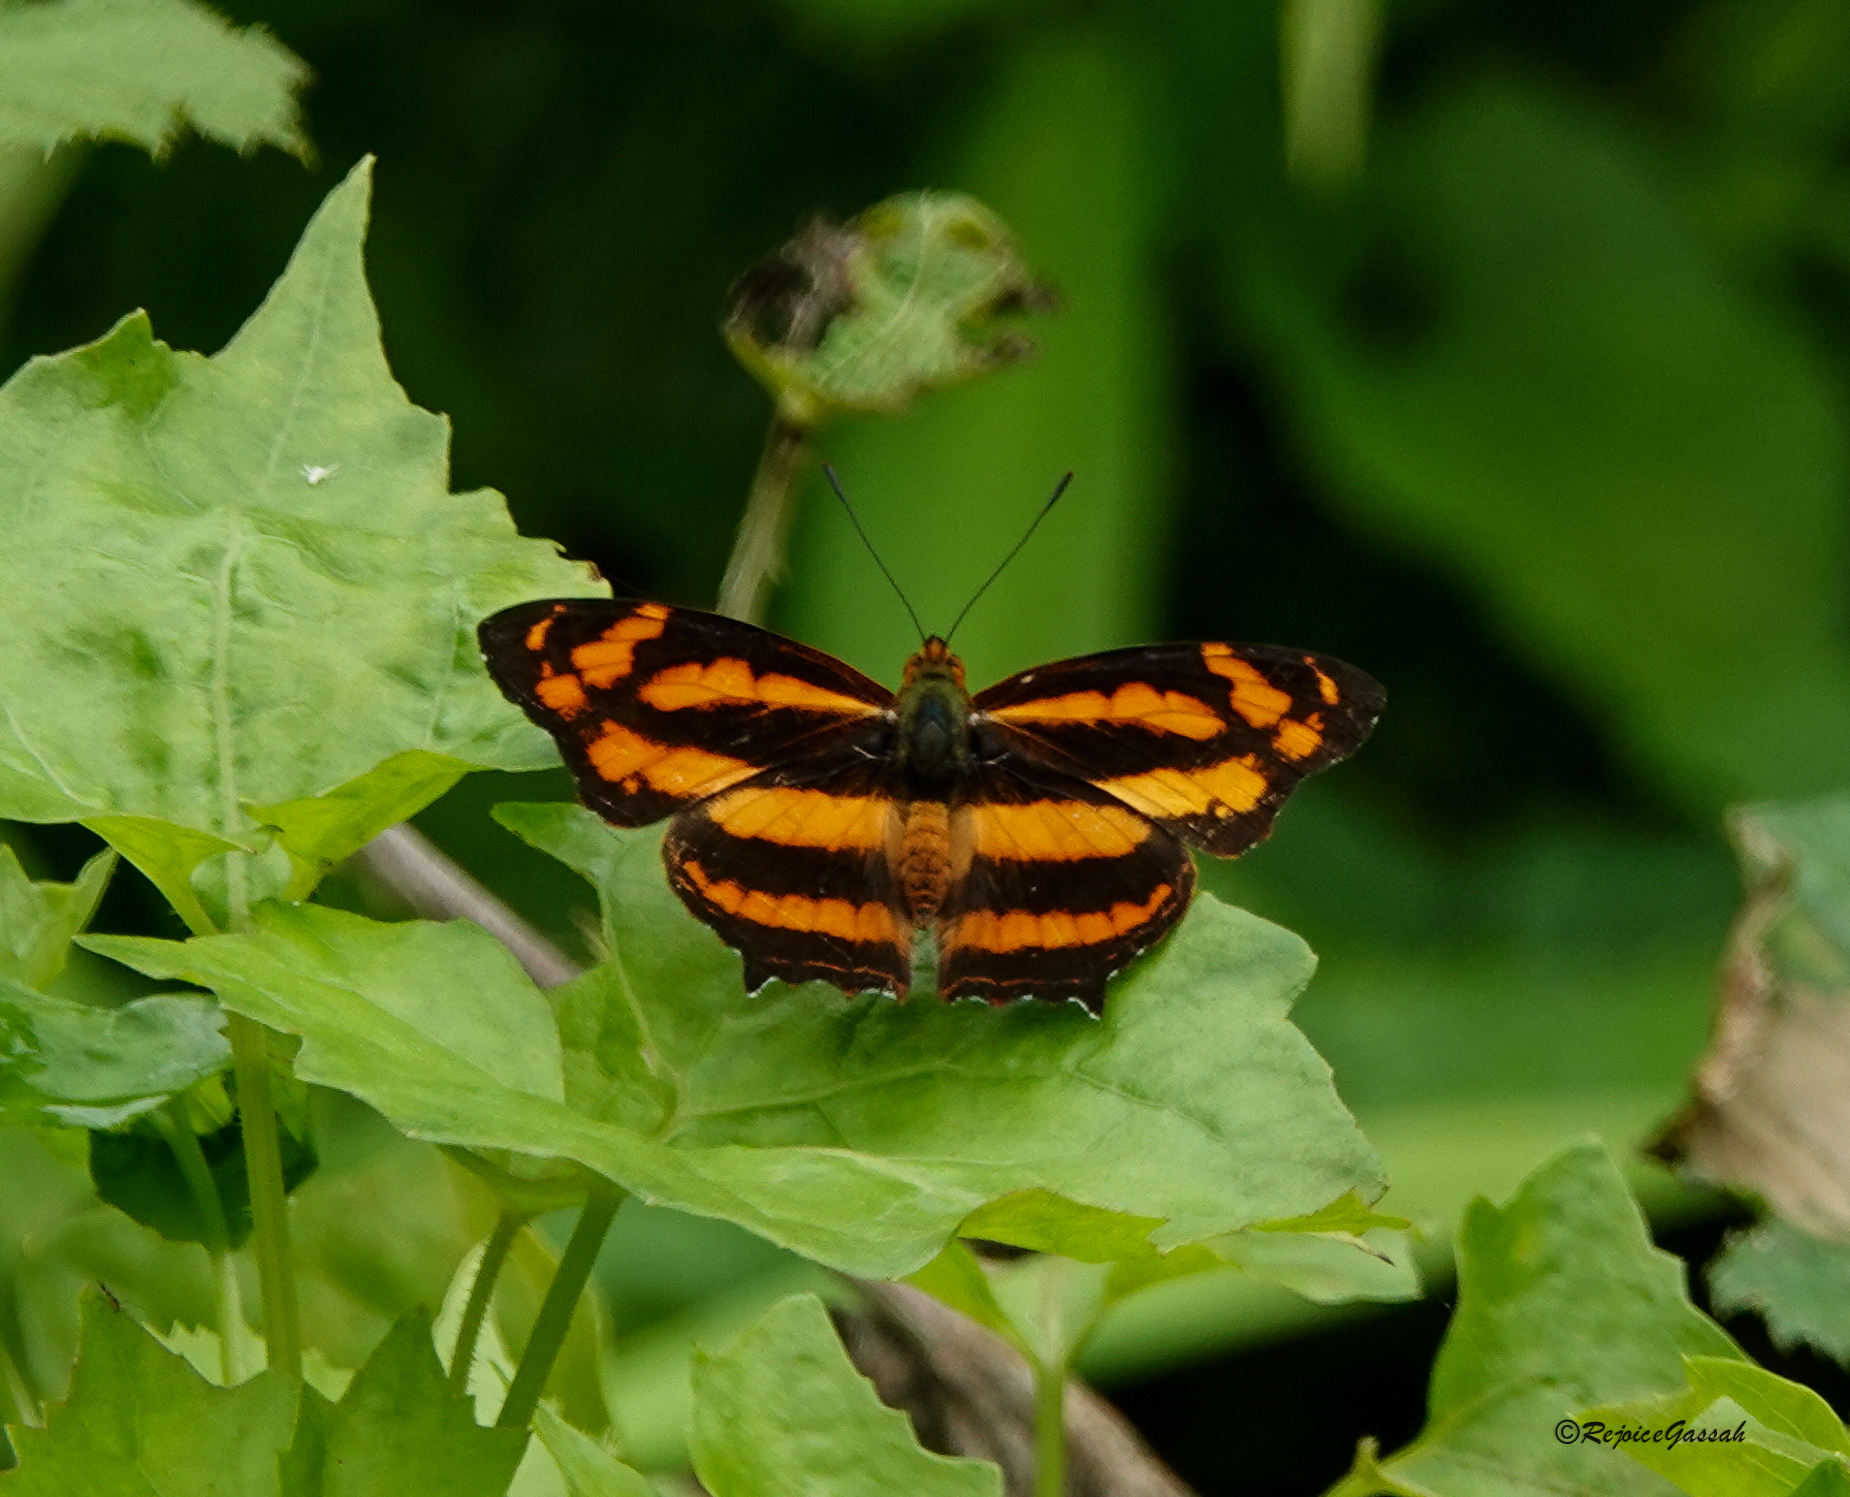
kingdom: Animalia
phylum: Arthropoda
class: Insecta
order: Lepidoptera
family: Nymphalidae
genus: Symbrenthia
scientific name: Symbrenthia hypselis
